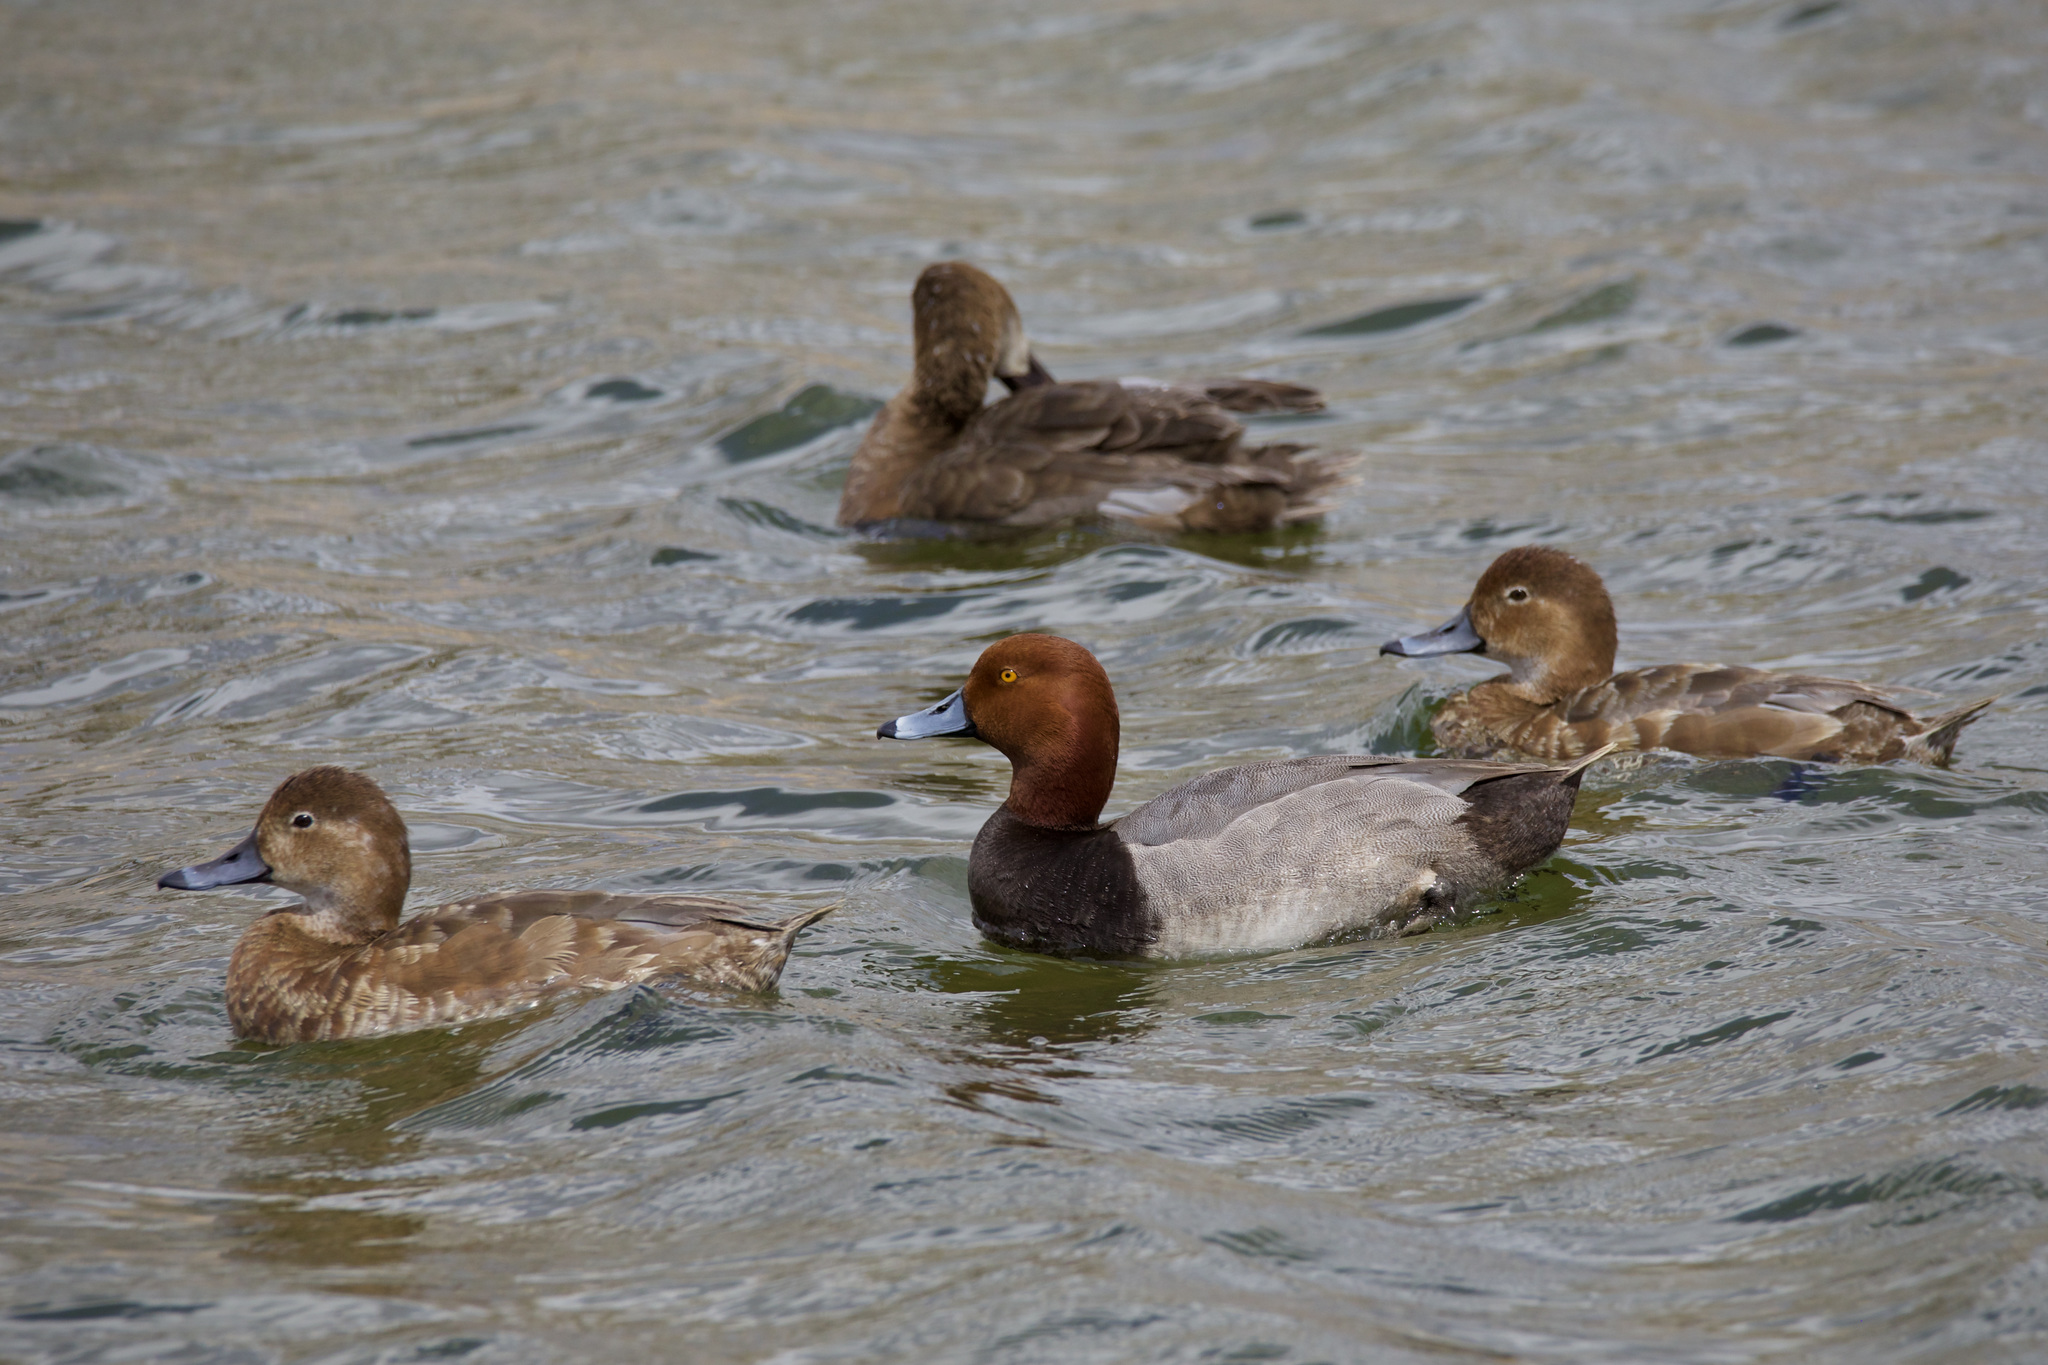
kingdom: Animalia
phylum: Chordata
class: Aves
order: Anseriformes
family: Anatidae
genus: Aythya
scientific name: Aythya americana
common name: Redhead
